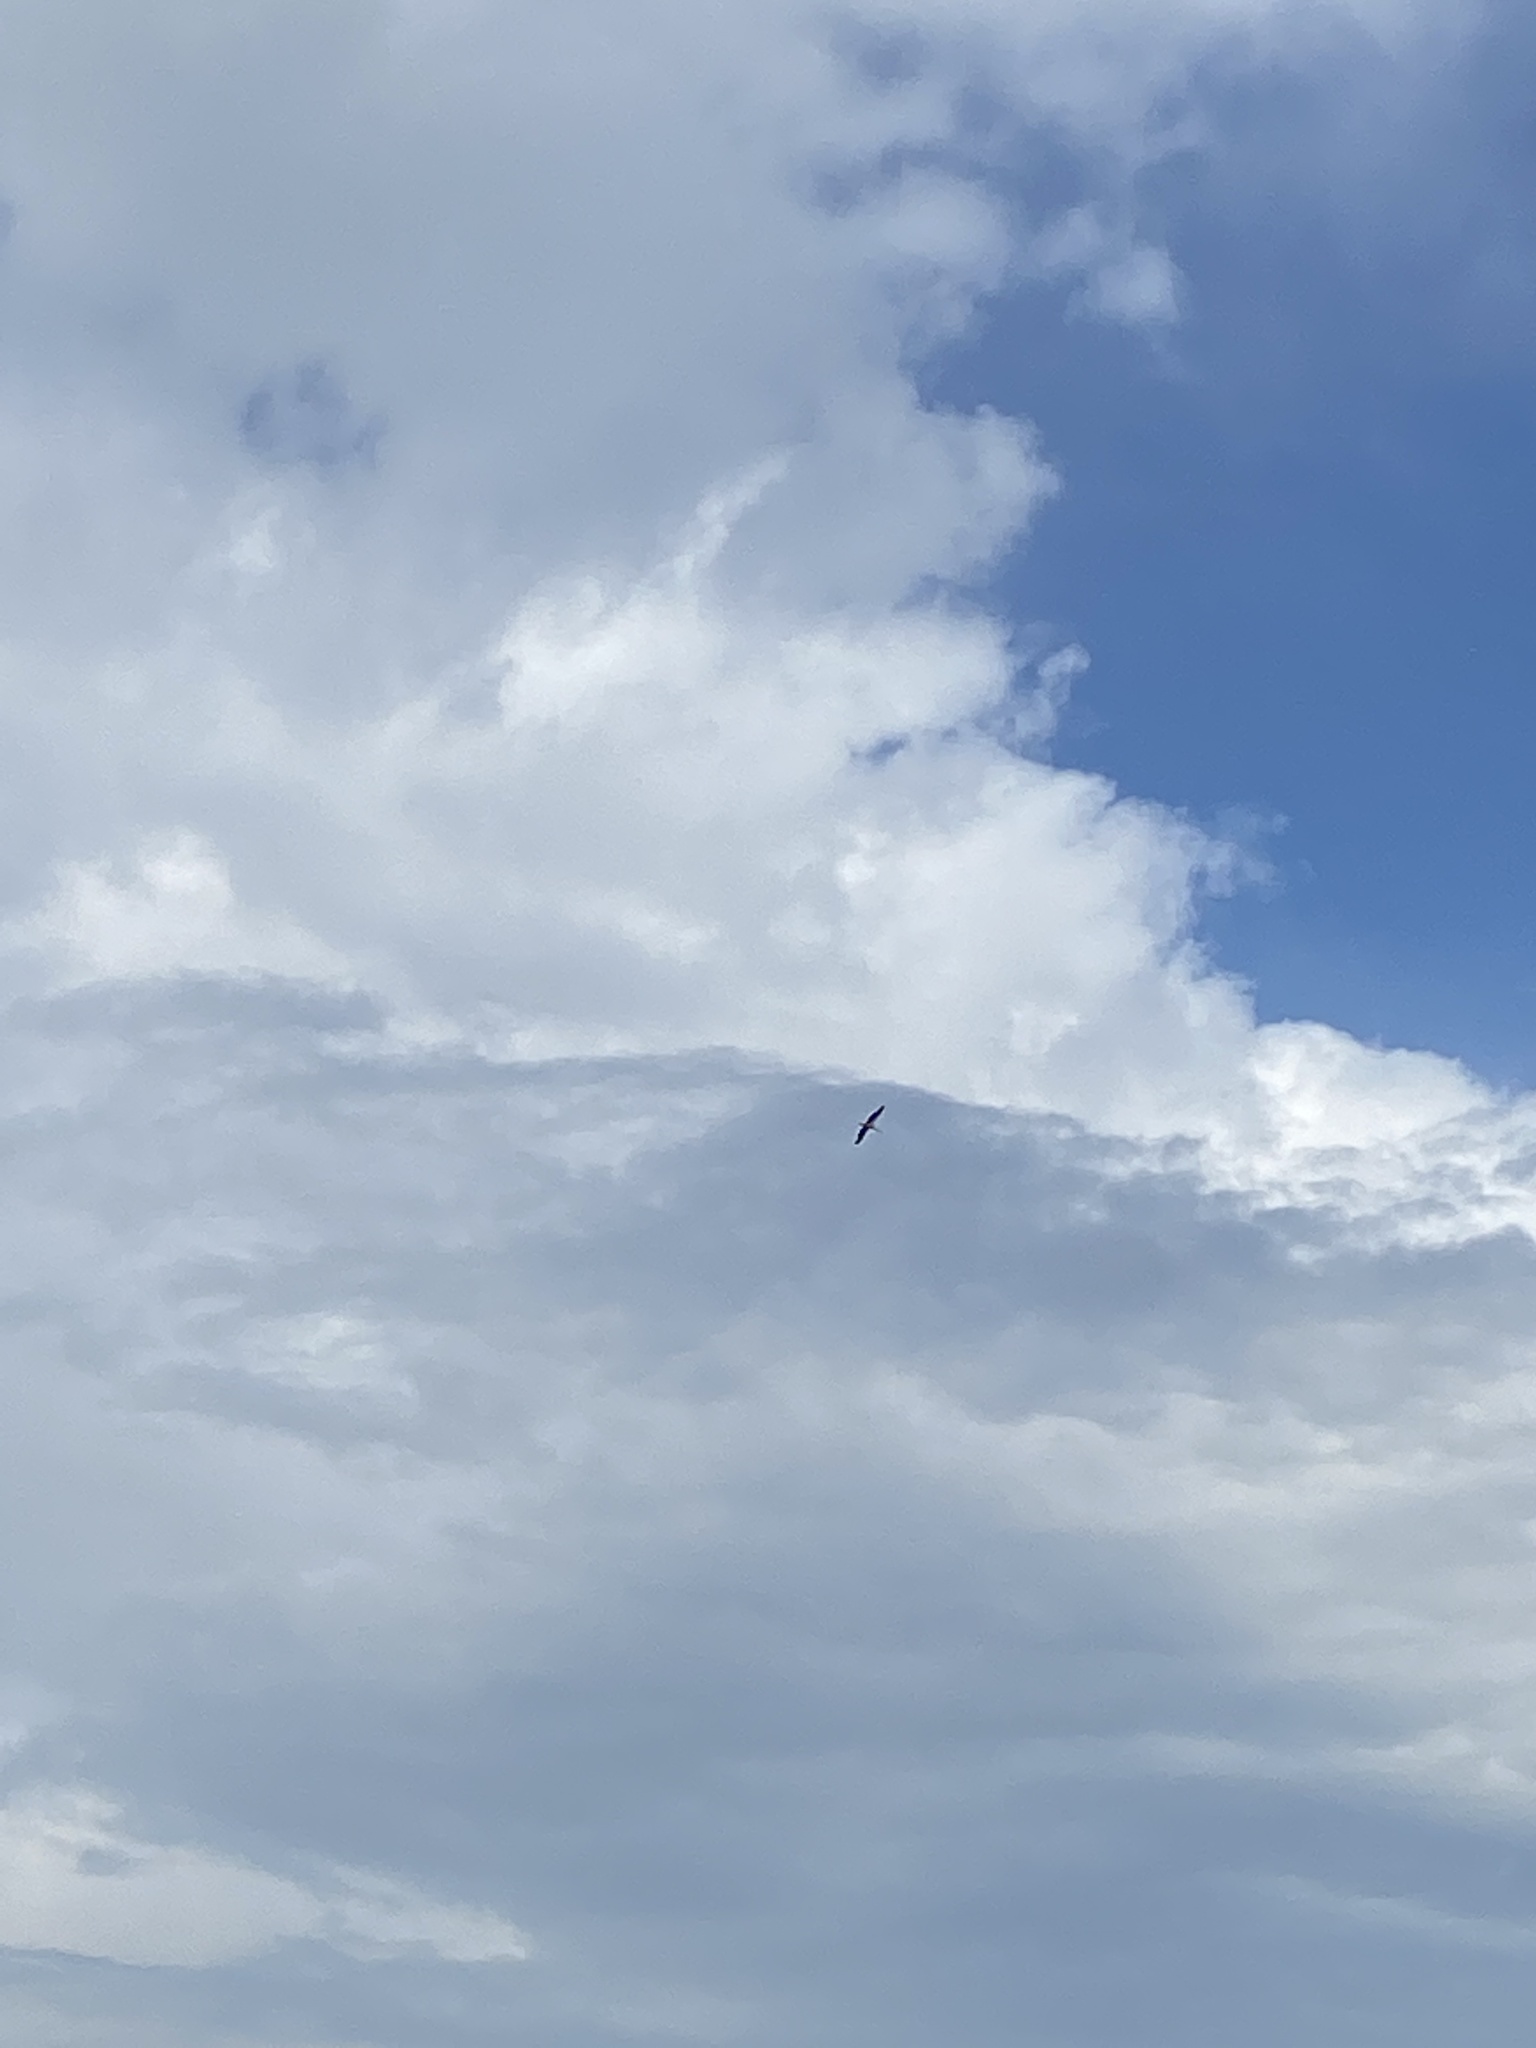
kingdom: Animalia
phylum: Chordata
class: Aves
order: Ciconiiformes
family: Ciconiidae
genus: Ciconia
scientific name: Ciconia ciconia
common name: White stork
